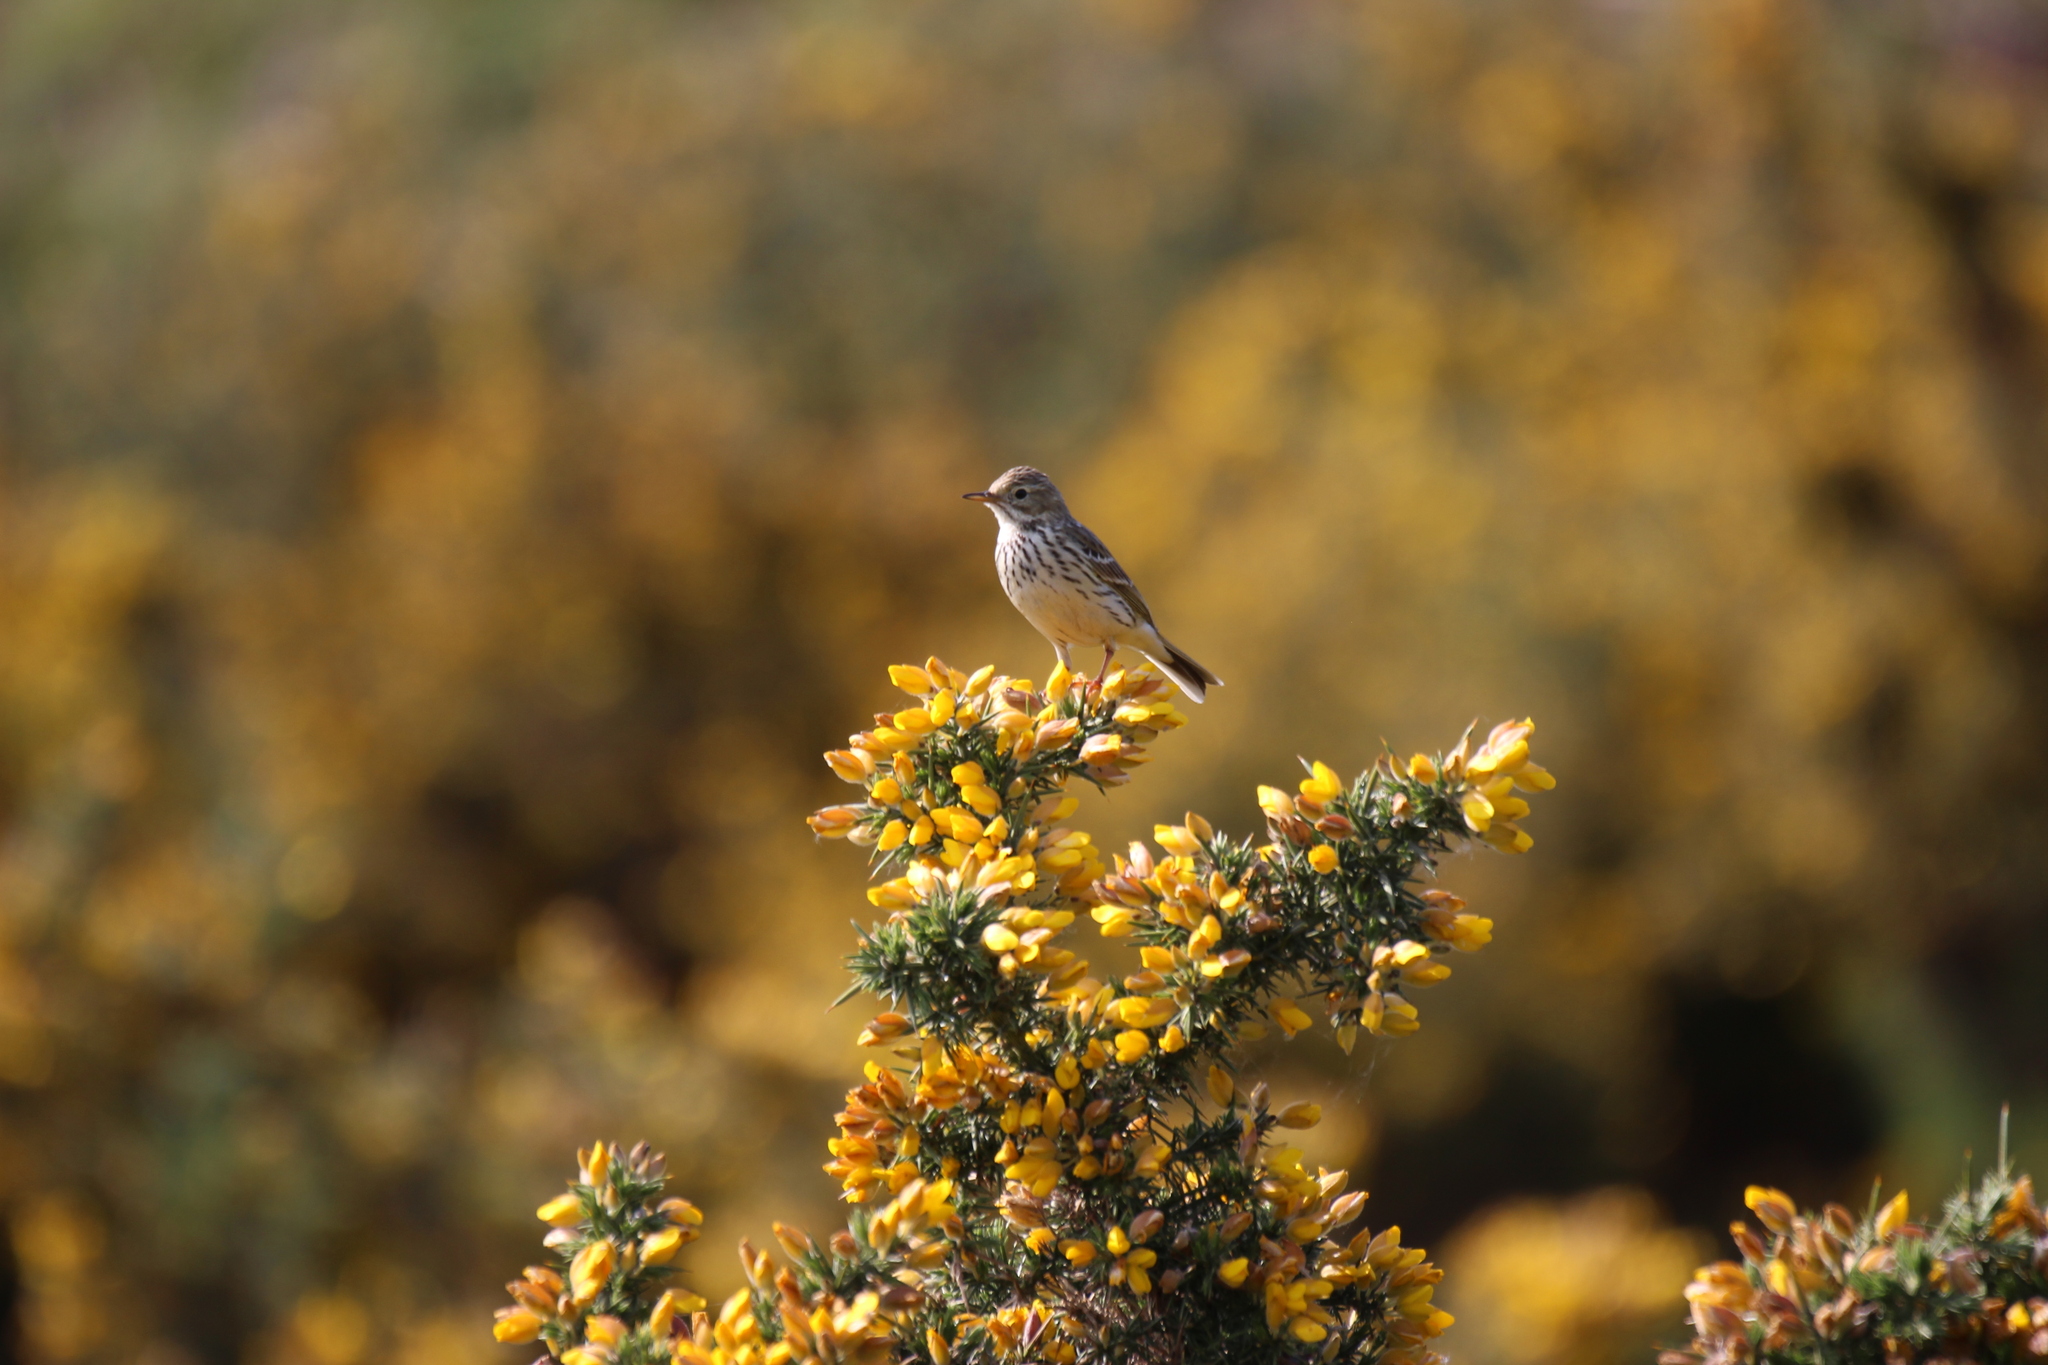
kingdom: Animalia
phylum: Chordata
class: Aves
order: Passeriformes
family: Motacillidae
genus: Anthus
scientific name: Anthus pratensis
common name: Meadow pipit
